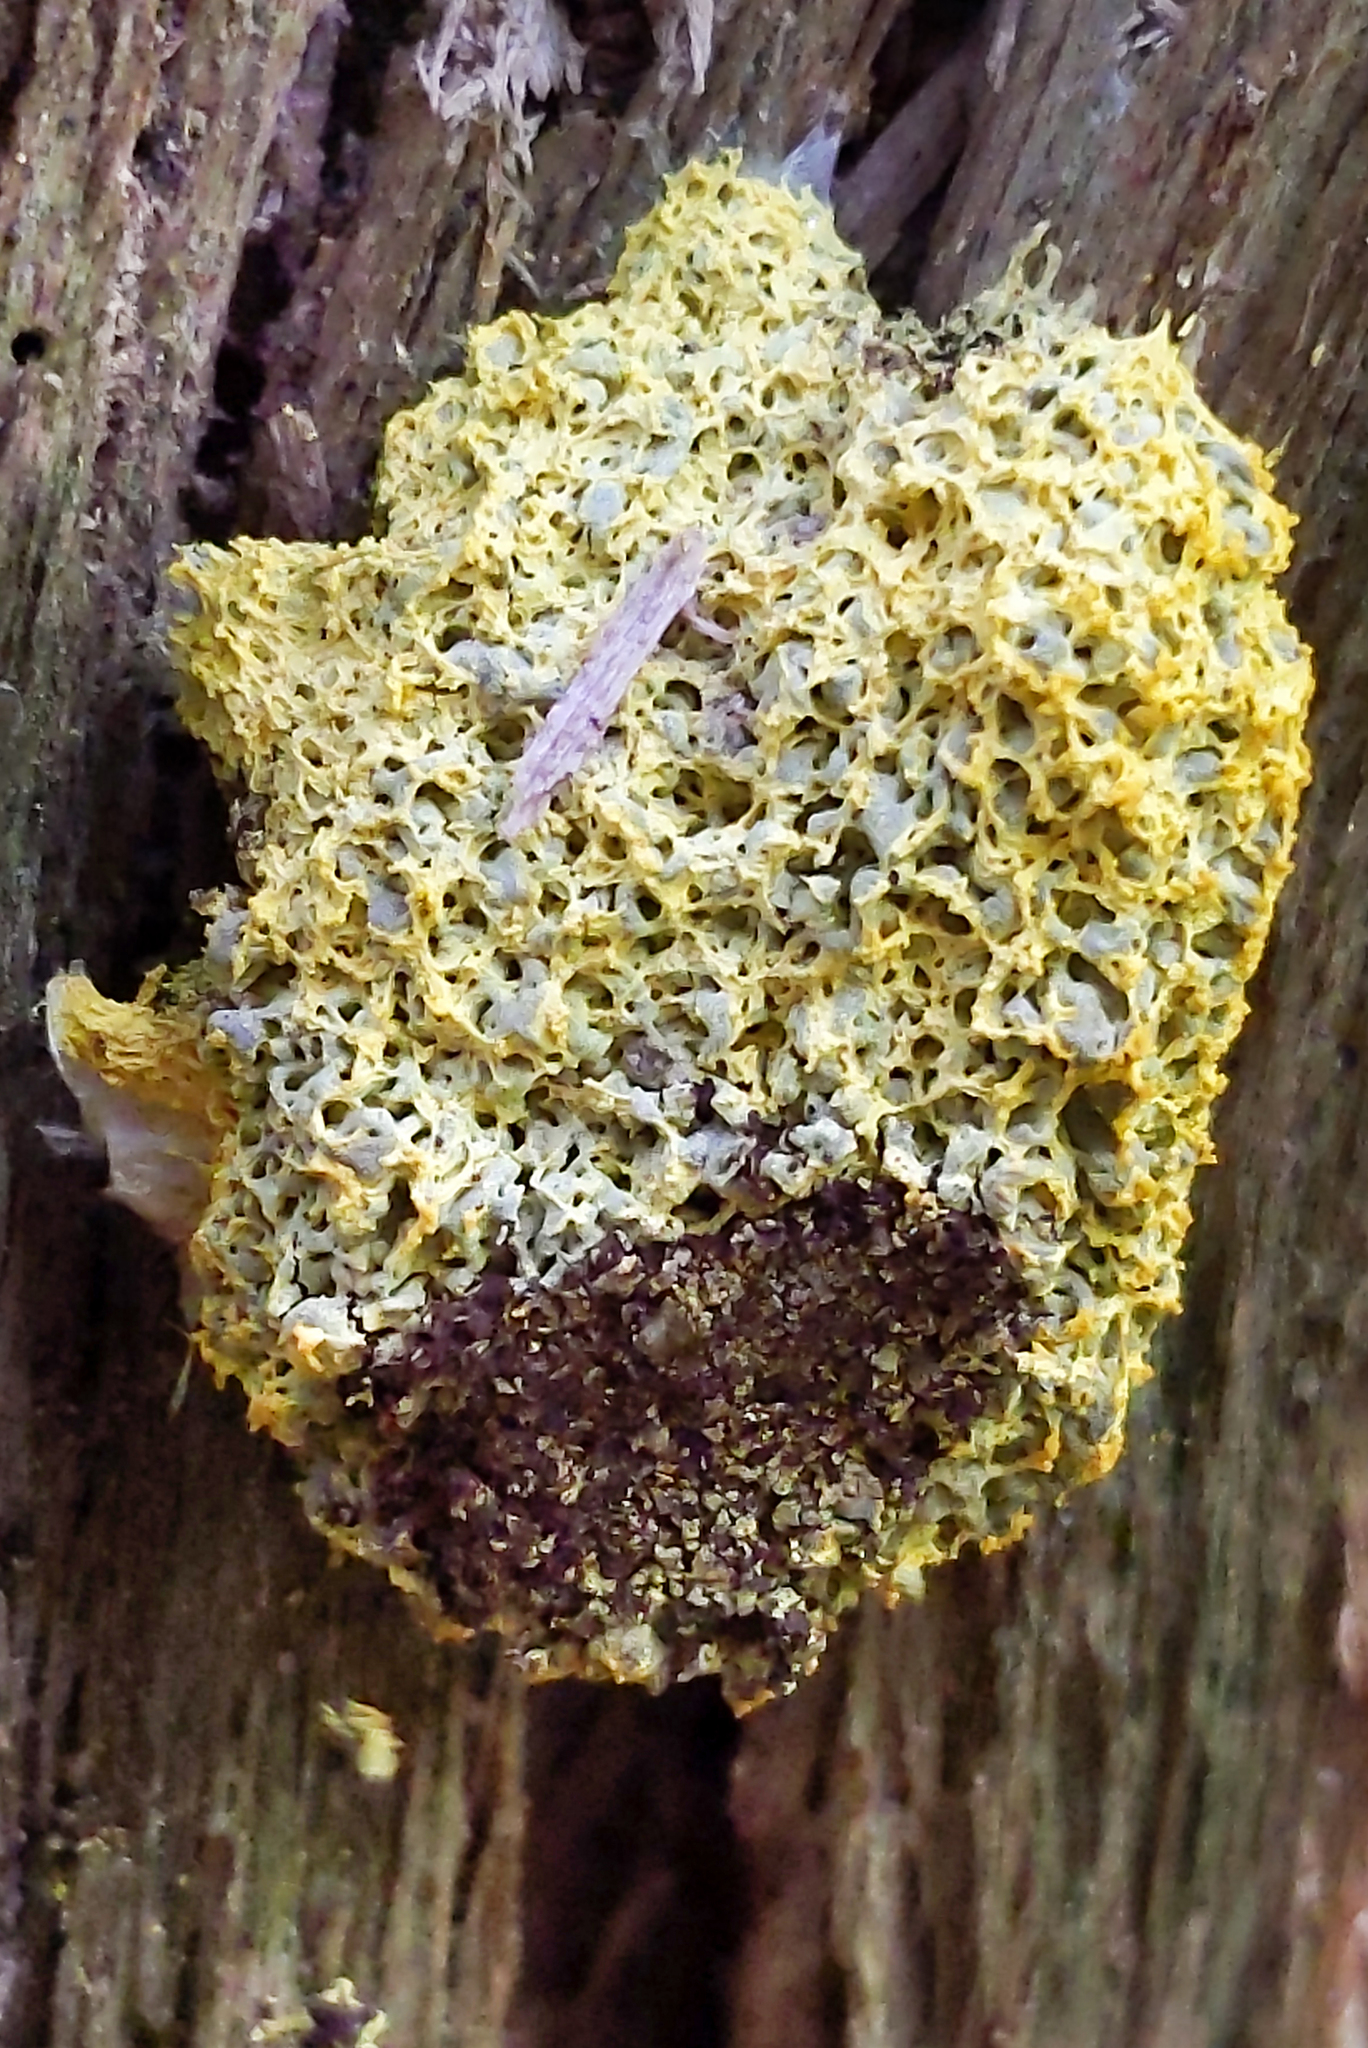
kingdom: Protozoa
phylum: Mycetozoa
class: Myxomycetes
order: Physarales
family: Physaraceae
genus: Fuligo
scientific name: Fuligo septica
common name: Dog vomit slime mold
